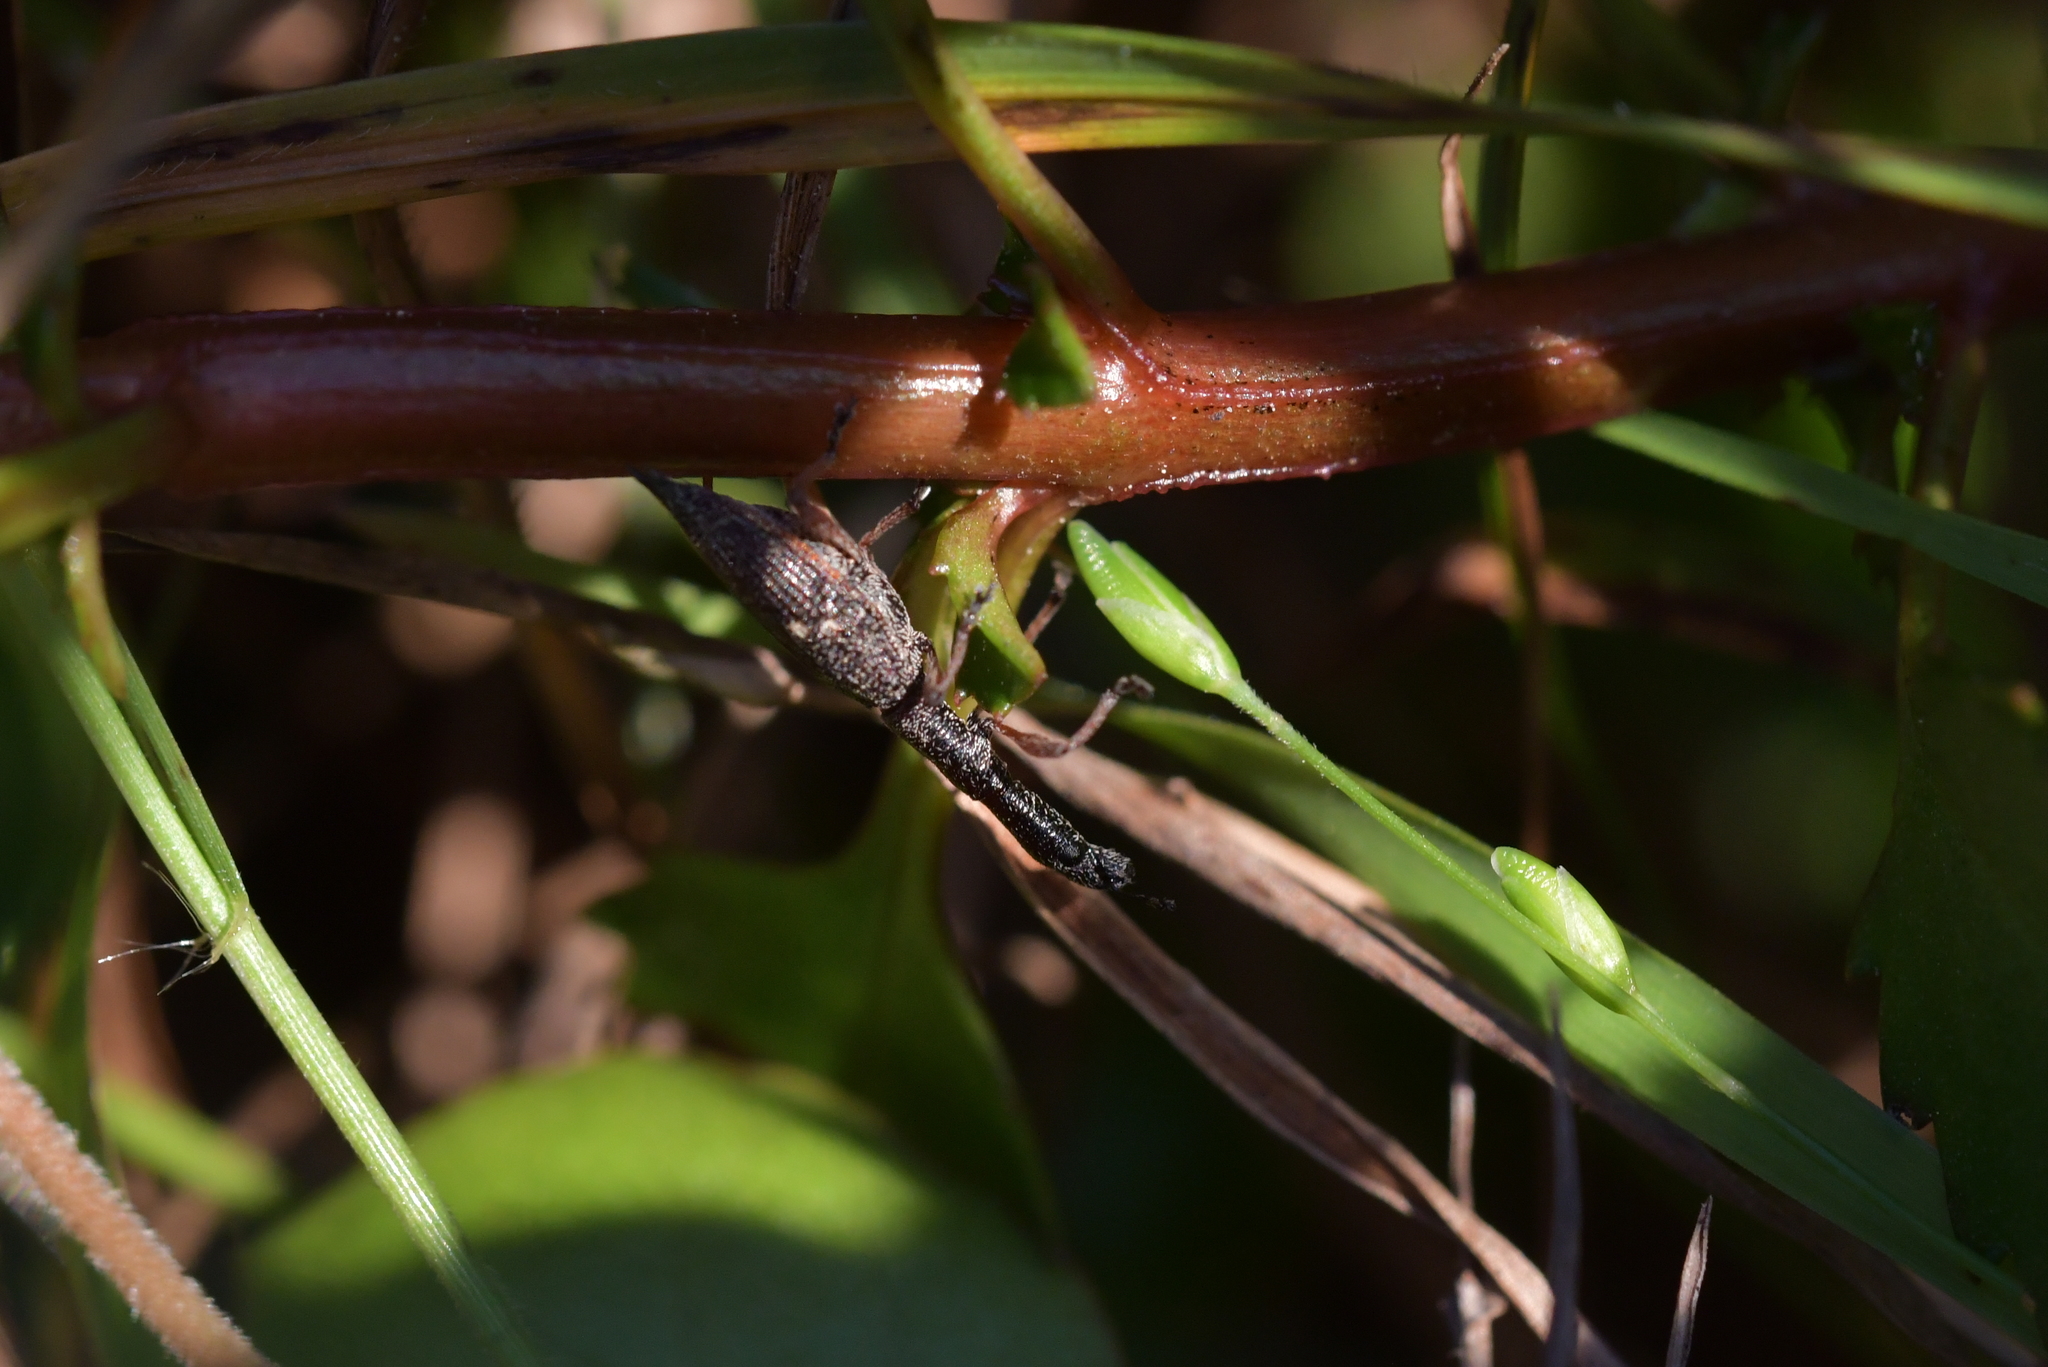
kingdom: Animalia
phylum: Arthropoda
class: Insecta
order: Coleoptera
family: Curculionidae
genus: Rhadinosomus
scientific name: Rhadinosomus acuminatus
